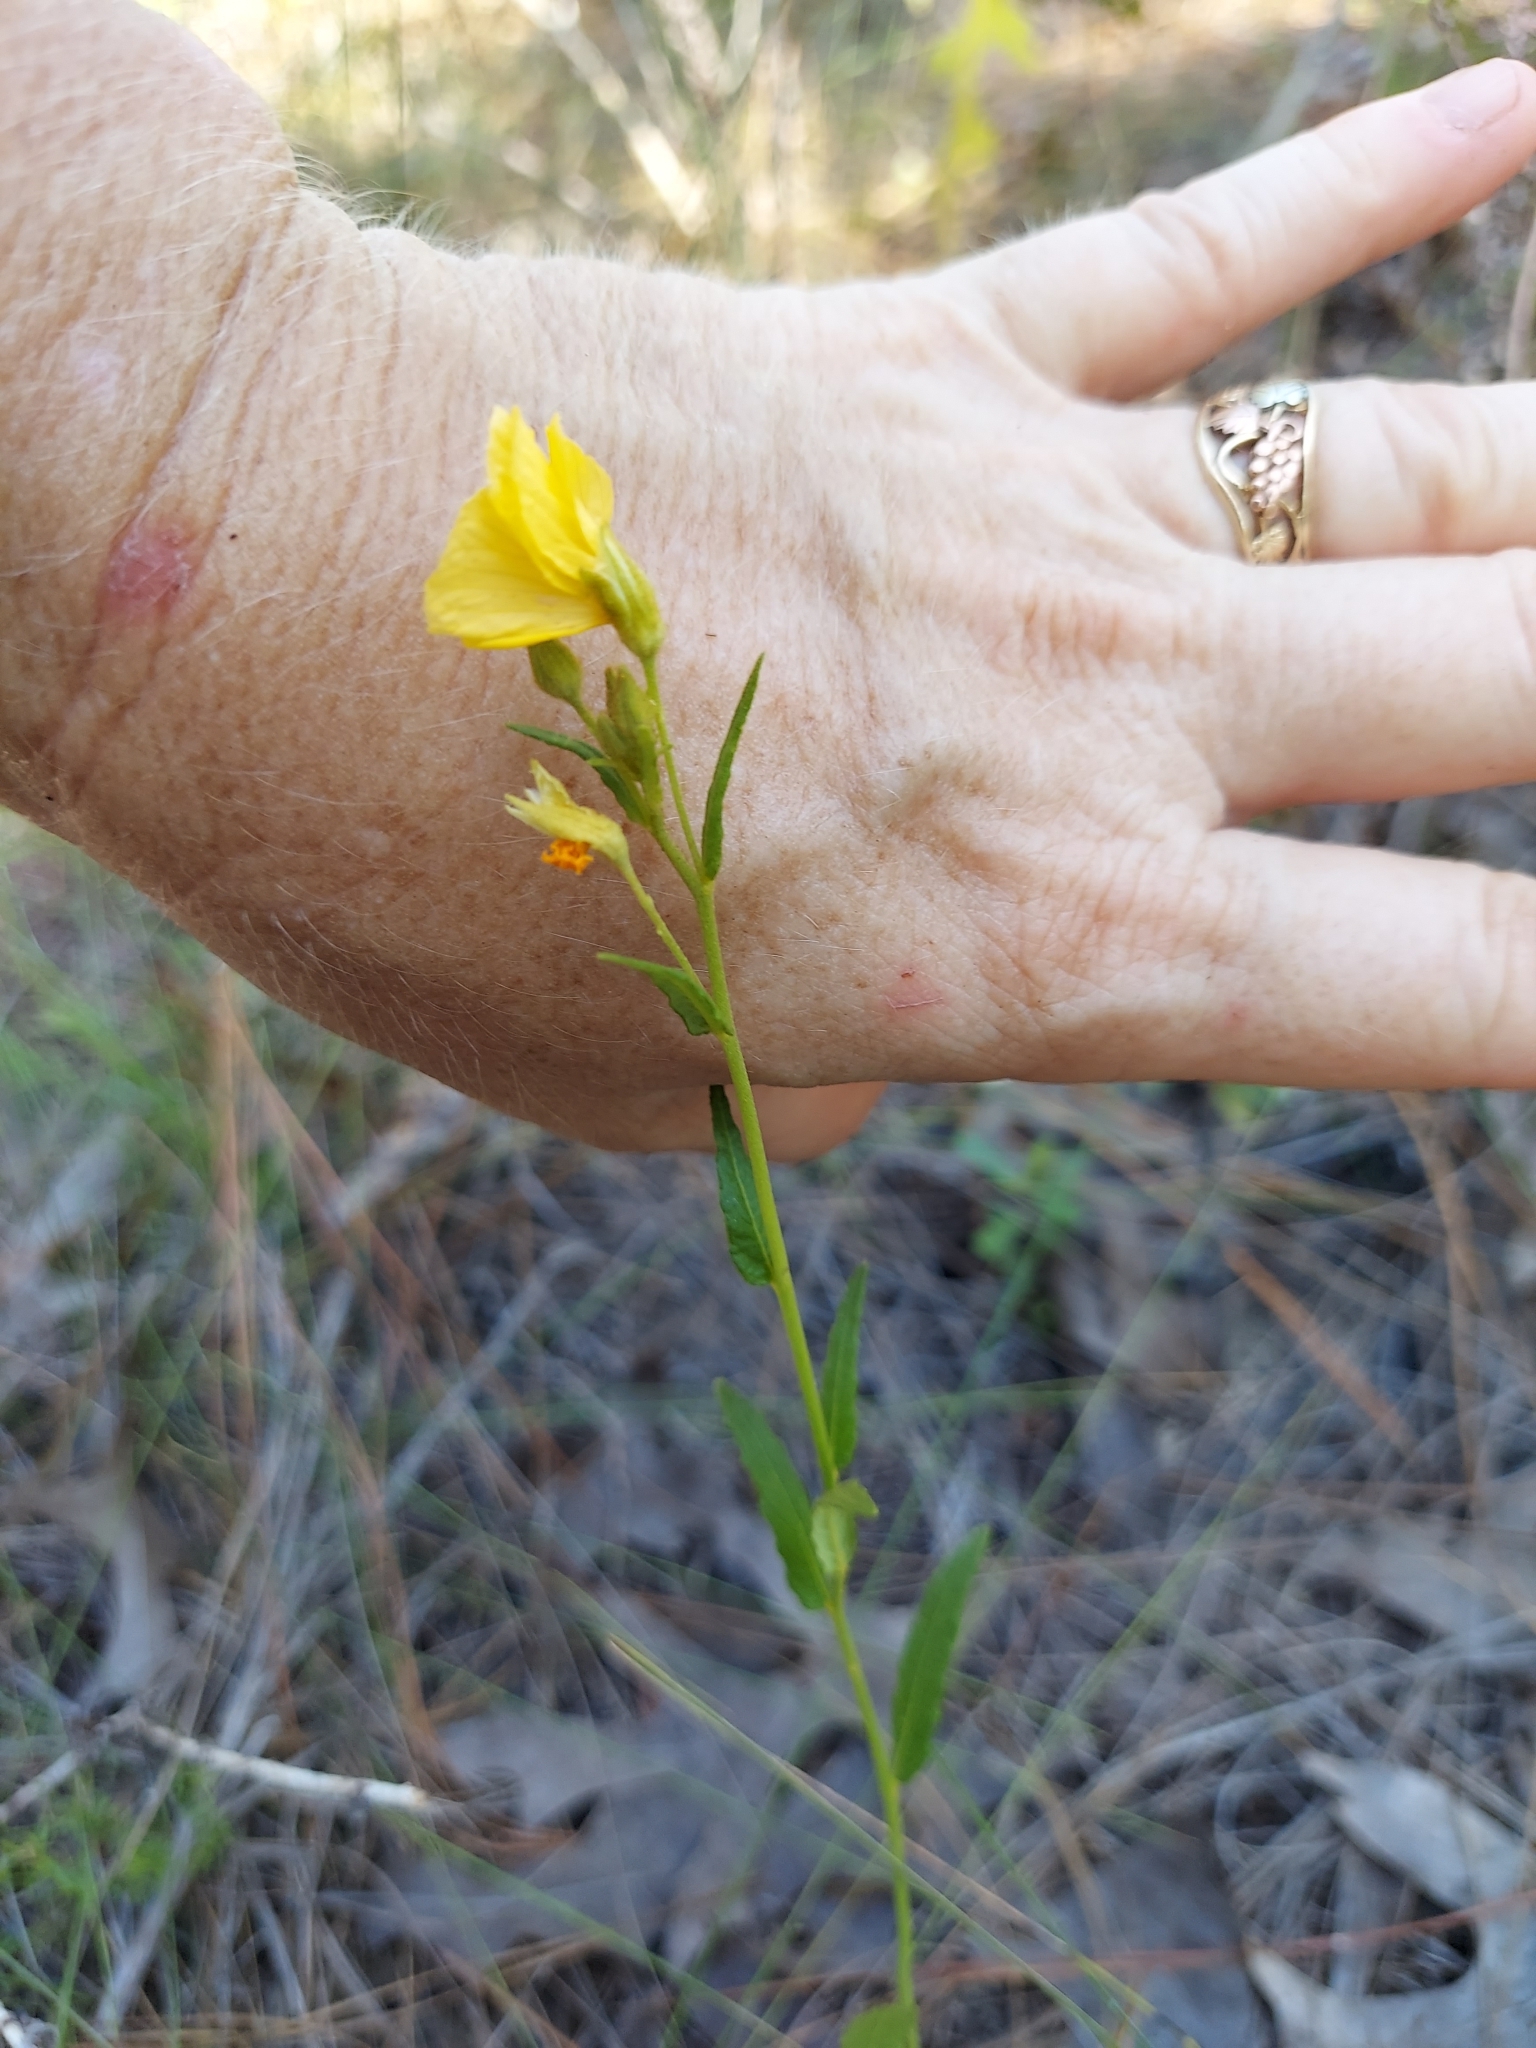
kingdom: Plantae
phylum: Tracheophyta
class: Magnoliopsida
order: Malpighiales
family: Turneraceae
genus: Piriqueta
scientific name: Piriqueta cistoides
